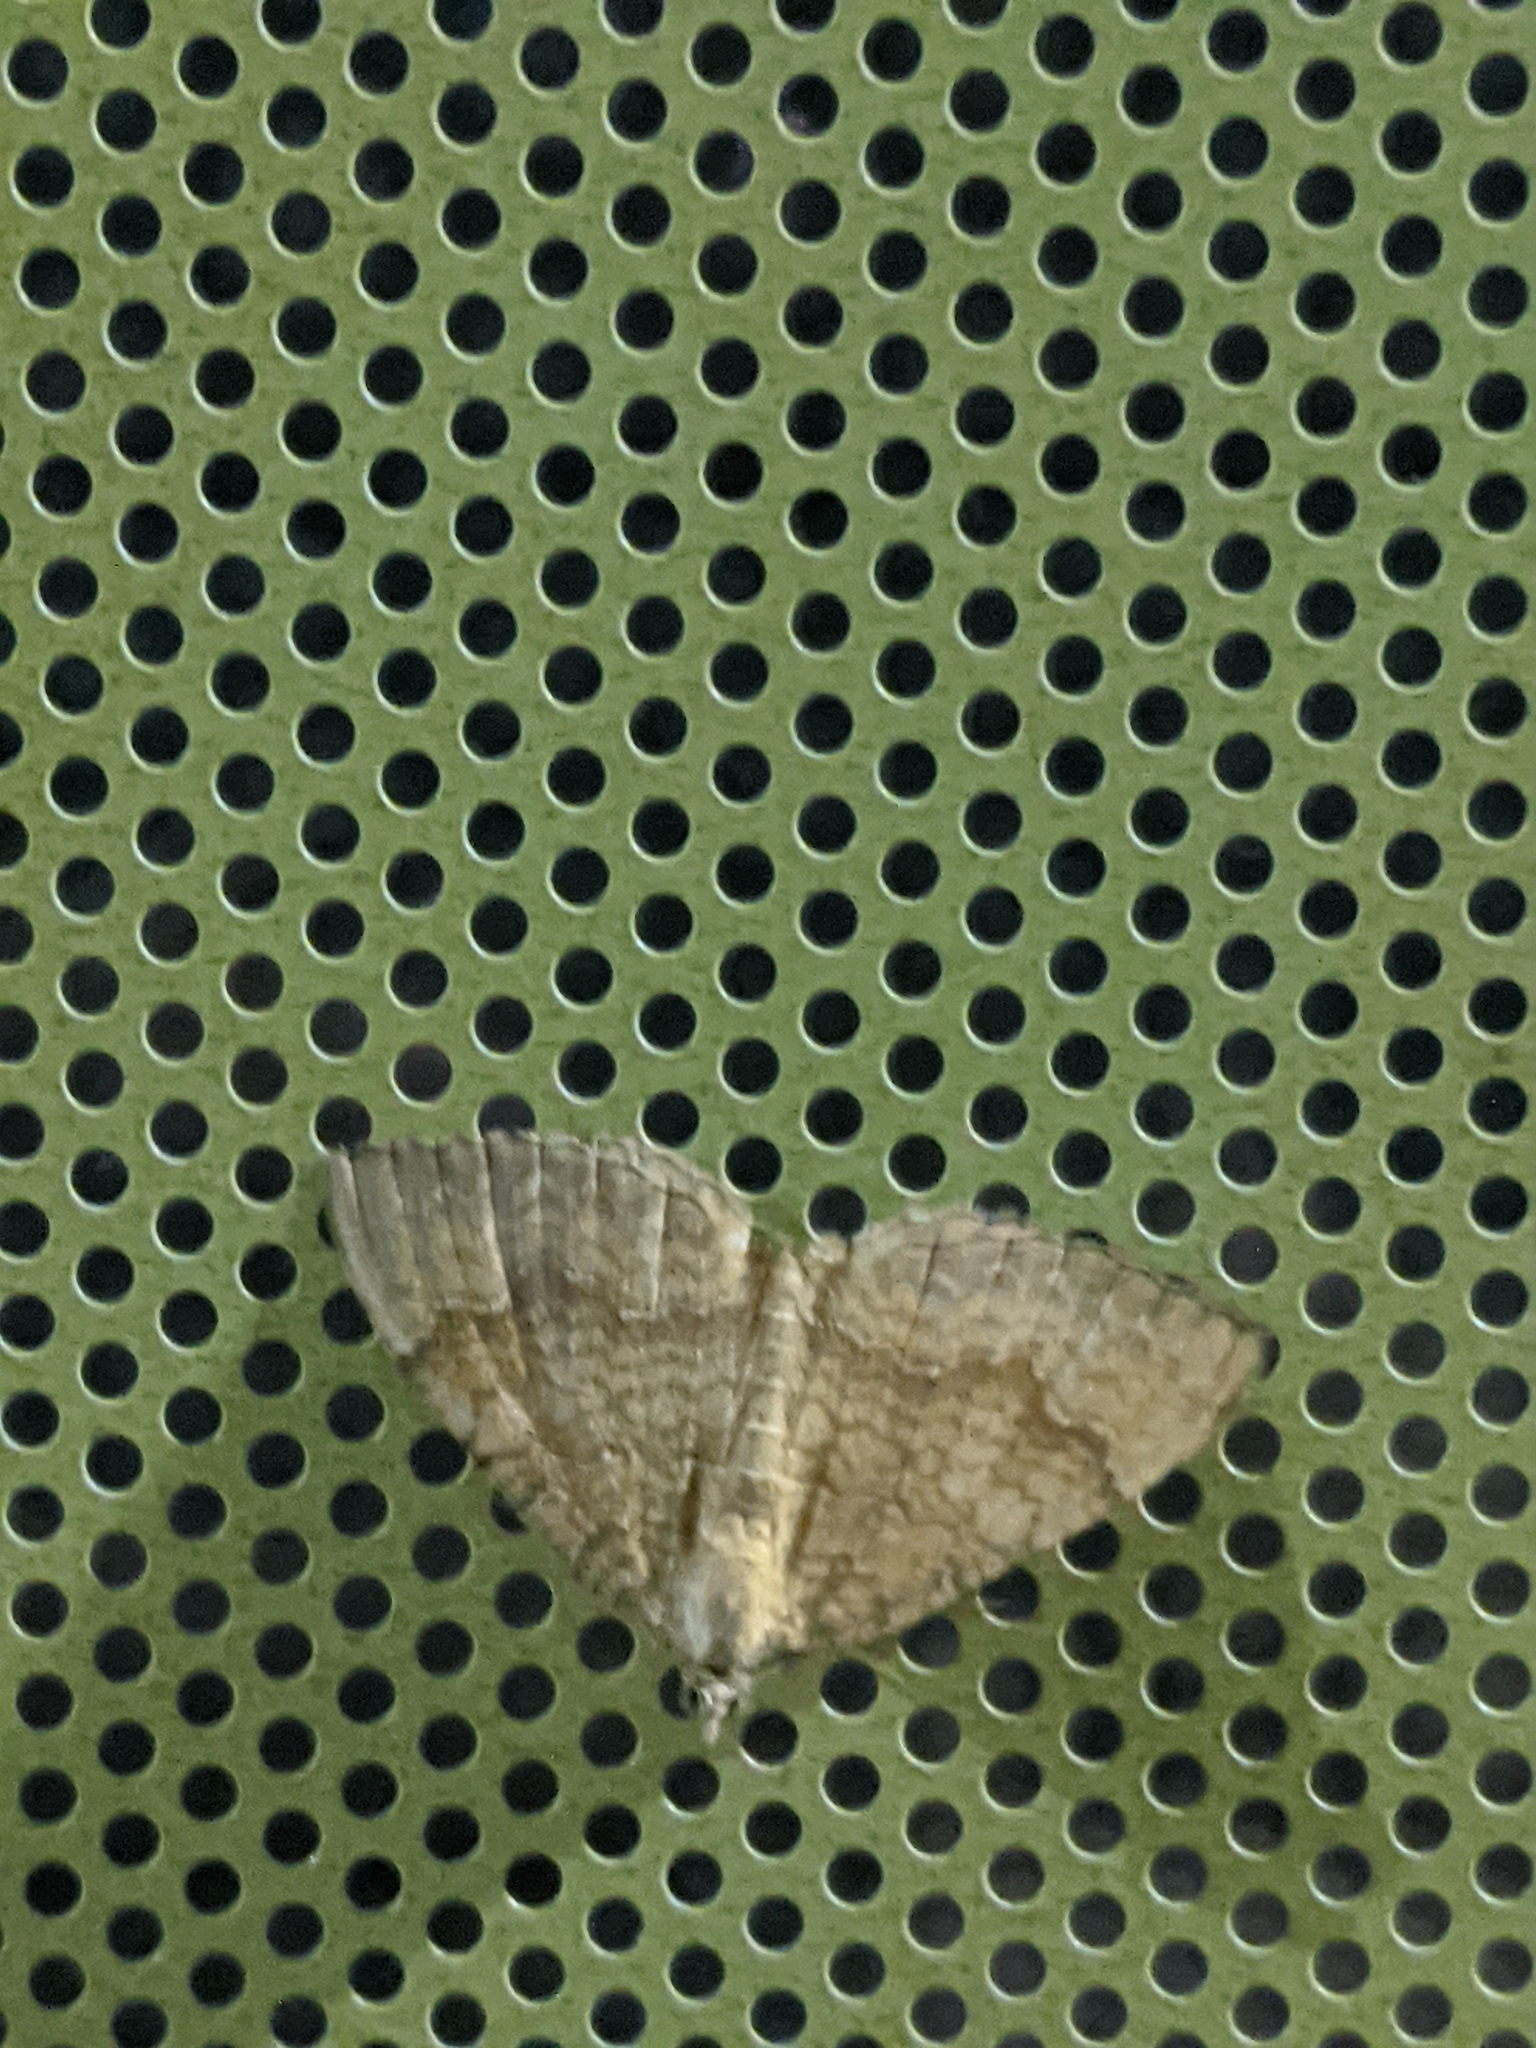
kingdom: Animalia
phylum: Arthropoda
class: Insecta
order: Lepidoptera
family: Geometridae
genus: Camptogramma
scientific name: Camptogramma bilineata
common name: Yellow shell
